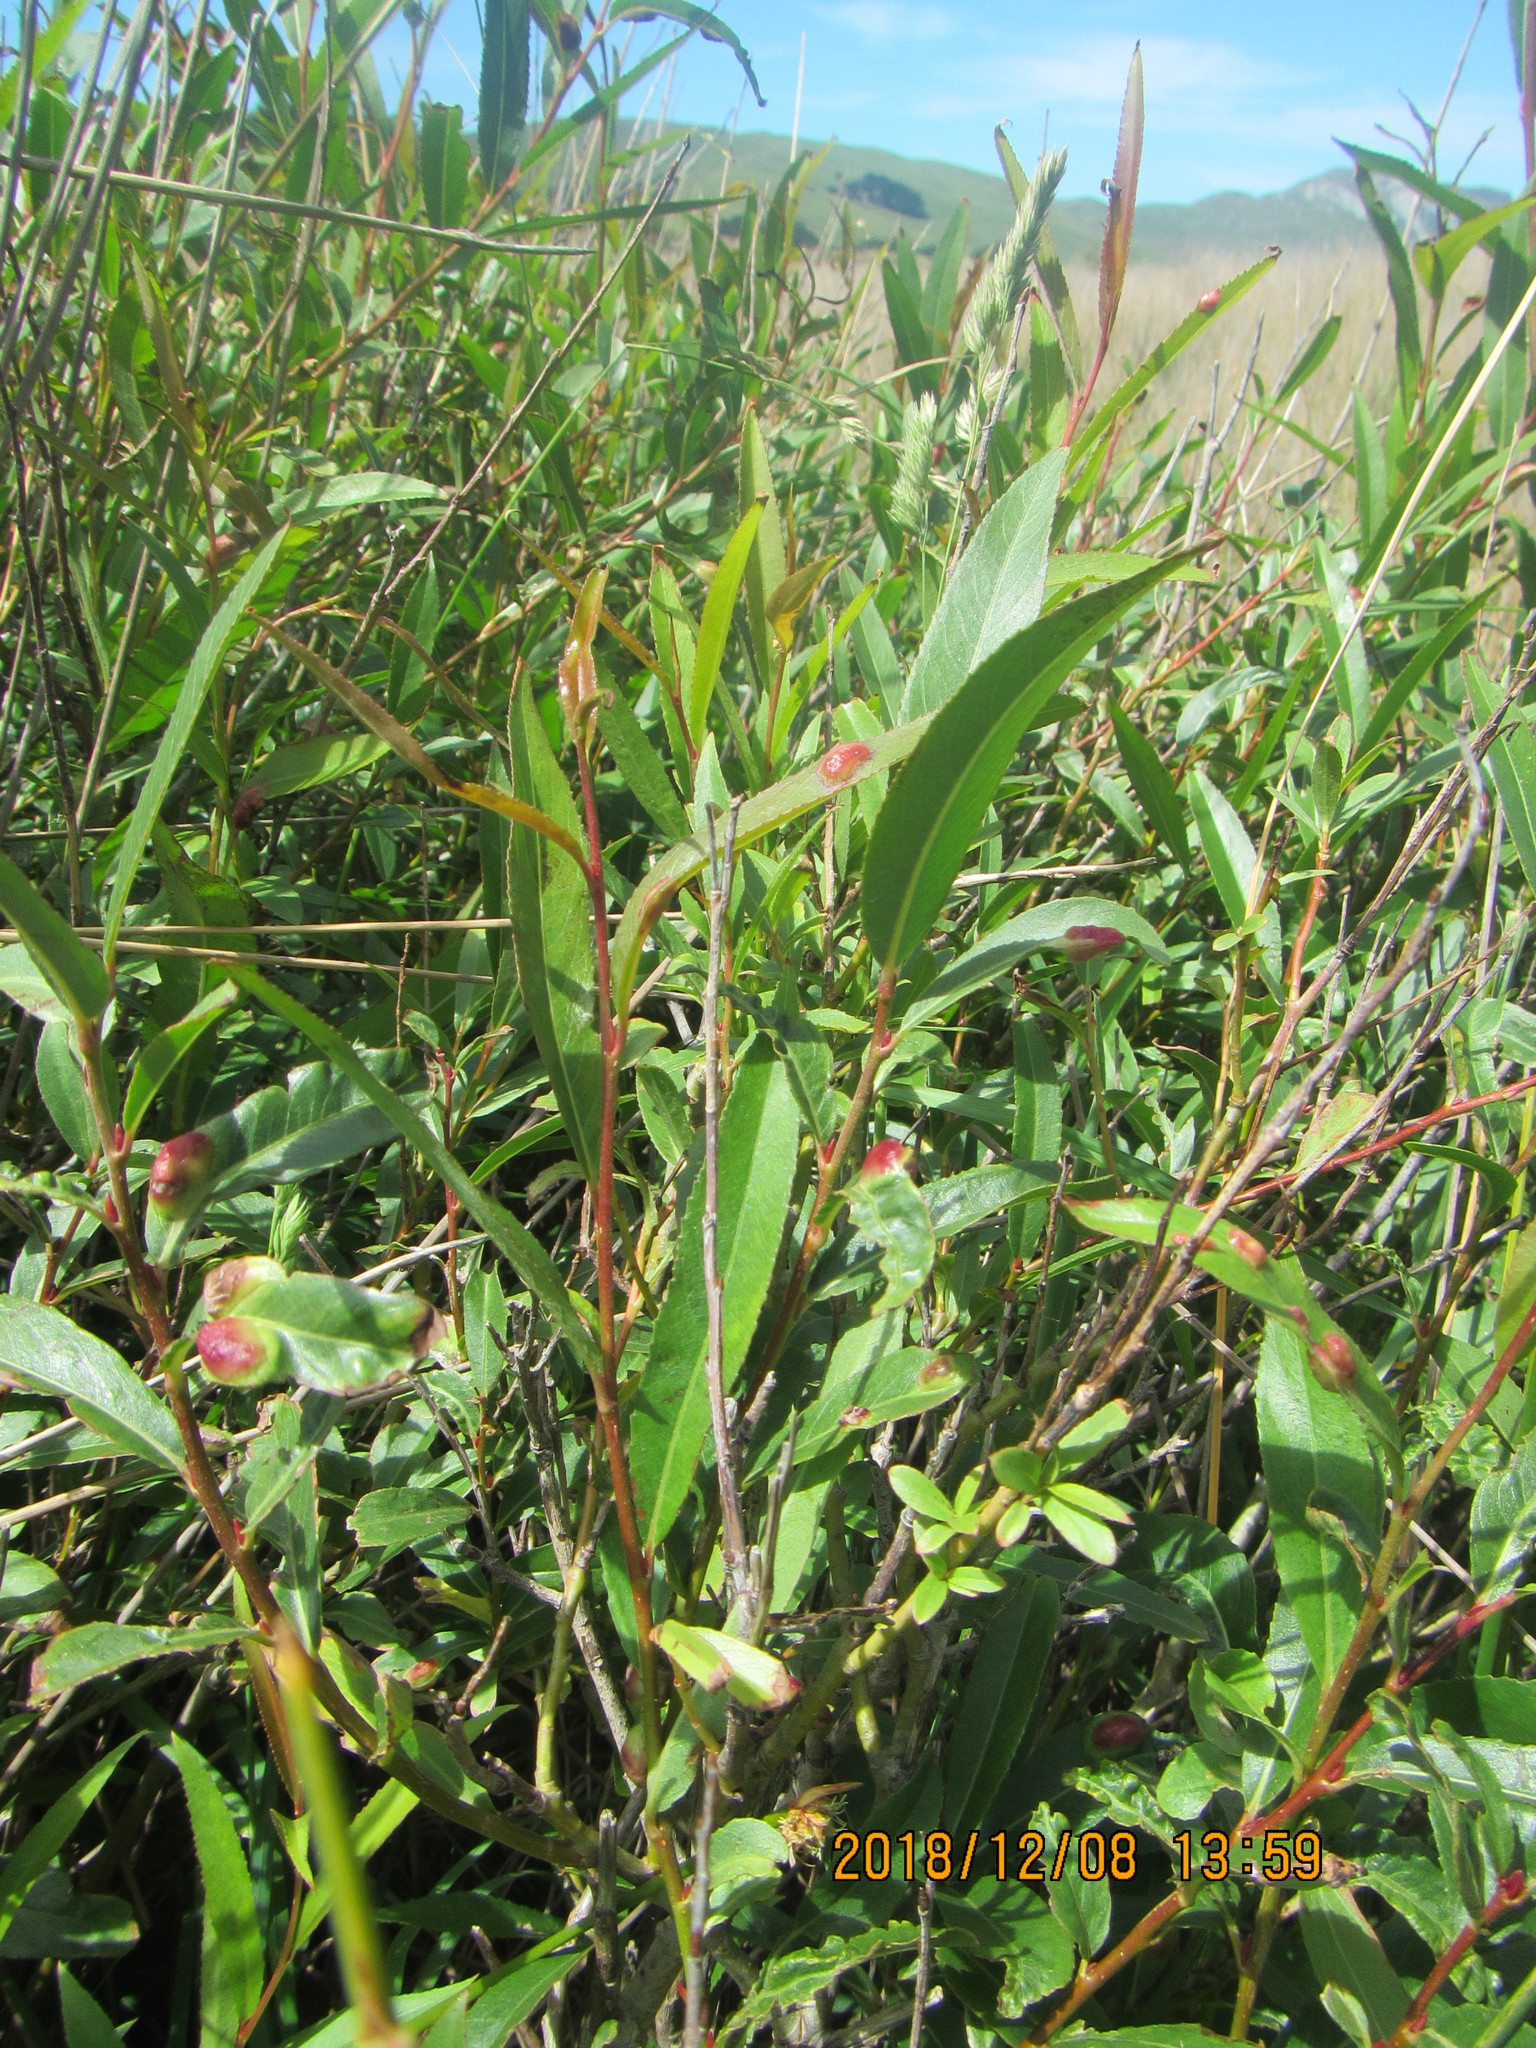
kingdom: Plantae
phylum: Tracheophyta
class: Magnoliopsida
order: Malpighiales
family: Salicaceae
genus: Salix
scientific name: Salix fragilis
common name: Crack willow
